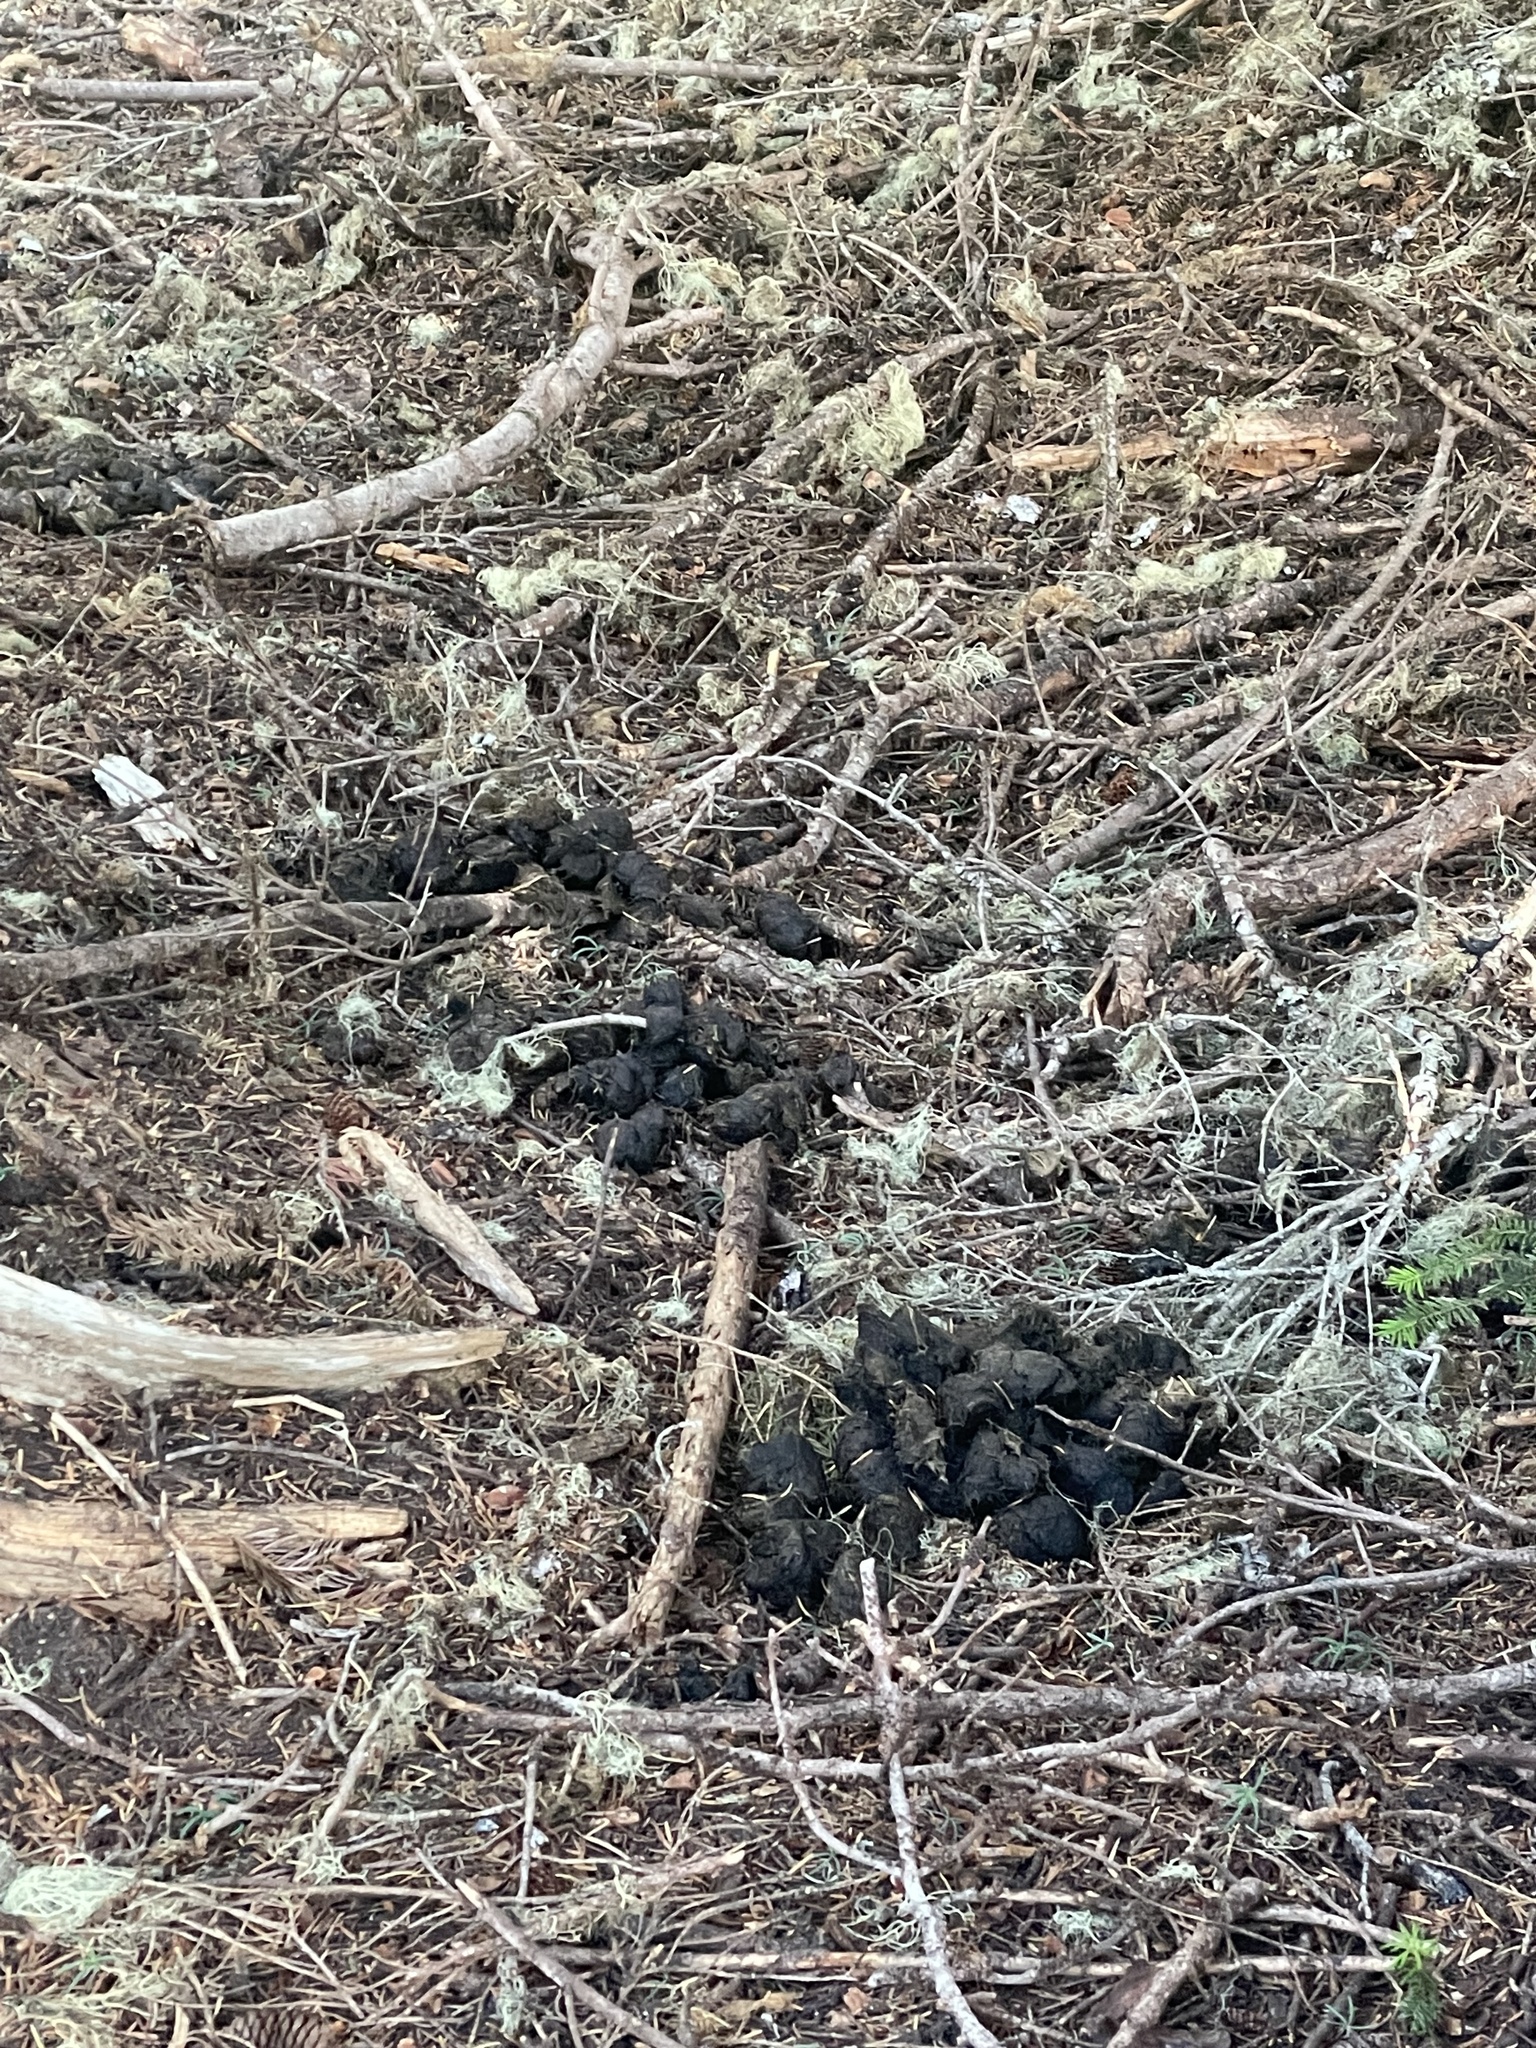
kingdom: Animalia
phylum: Chordata
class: Mammalia
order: Carnivora
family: Ursidae
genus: Ursus
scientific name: Ursus americanus
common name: American black bear
